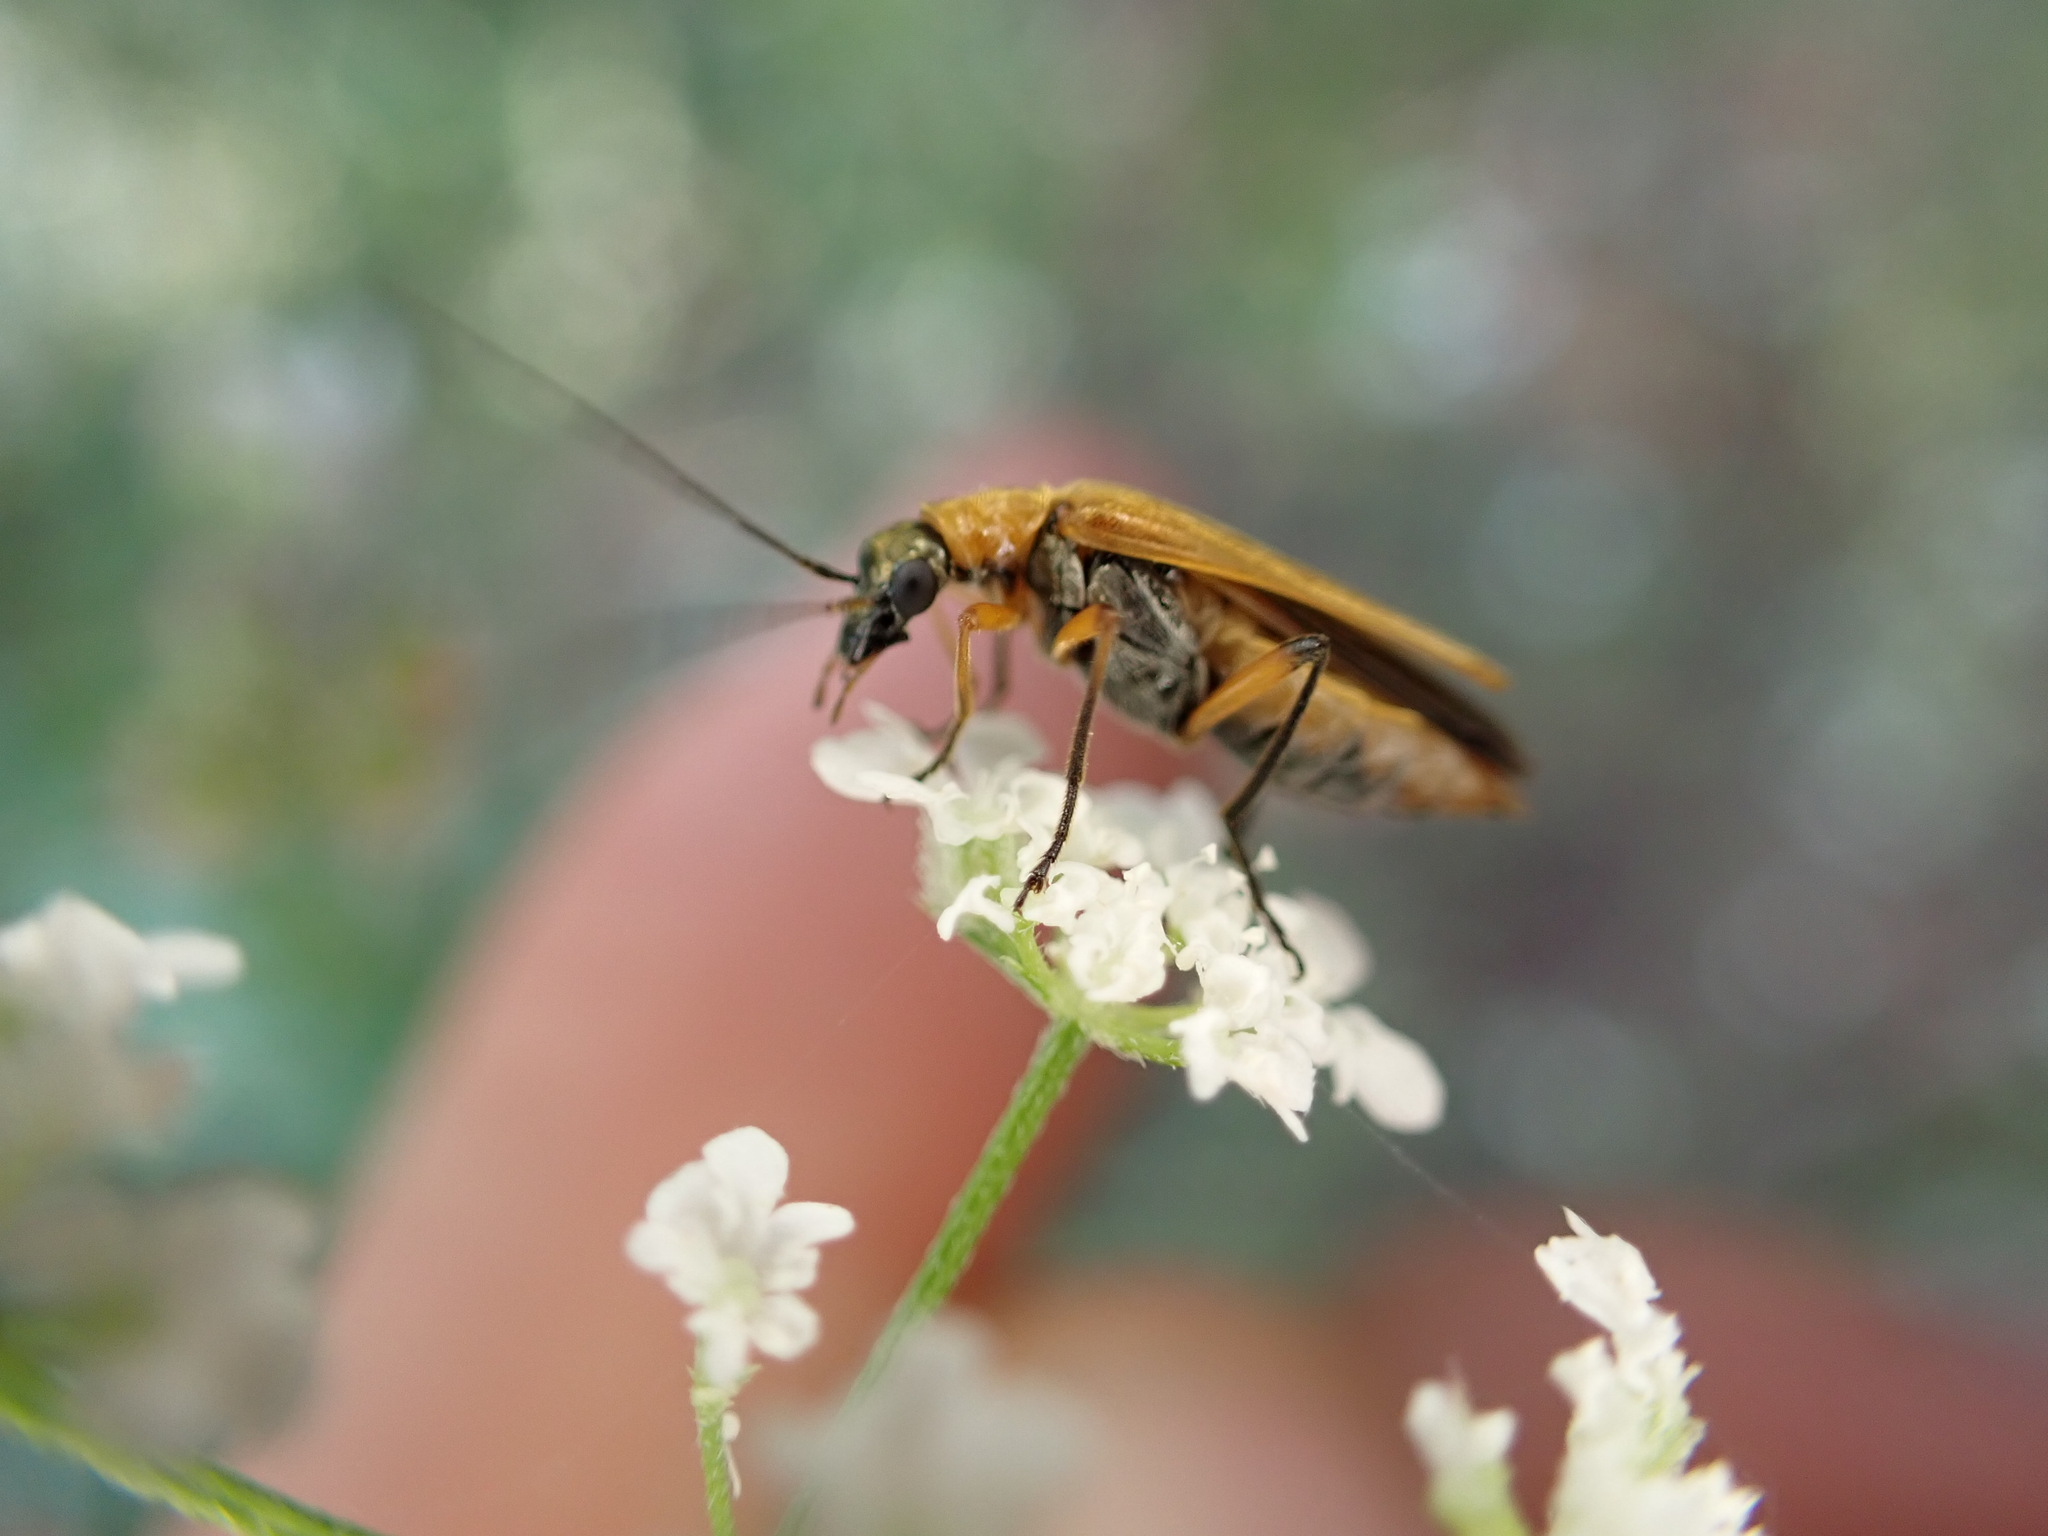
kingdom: Animalia
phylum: Arthropoda
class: Insecta
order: Coleoptera
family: Oedemeridae
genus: Oedemera
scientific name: Oedemera podagrariae
